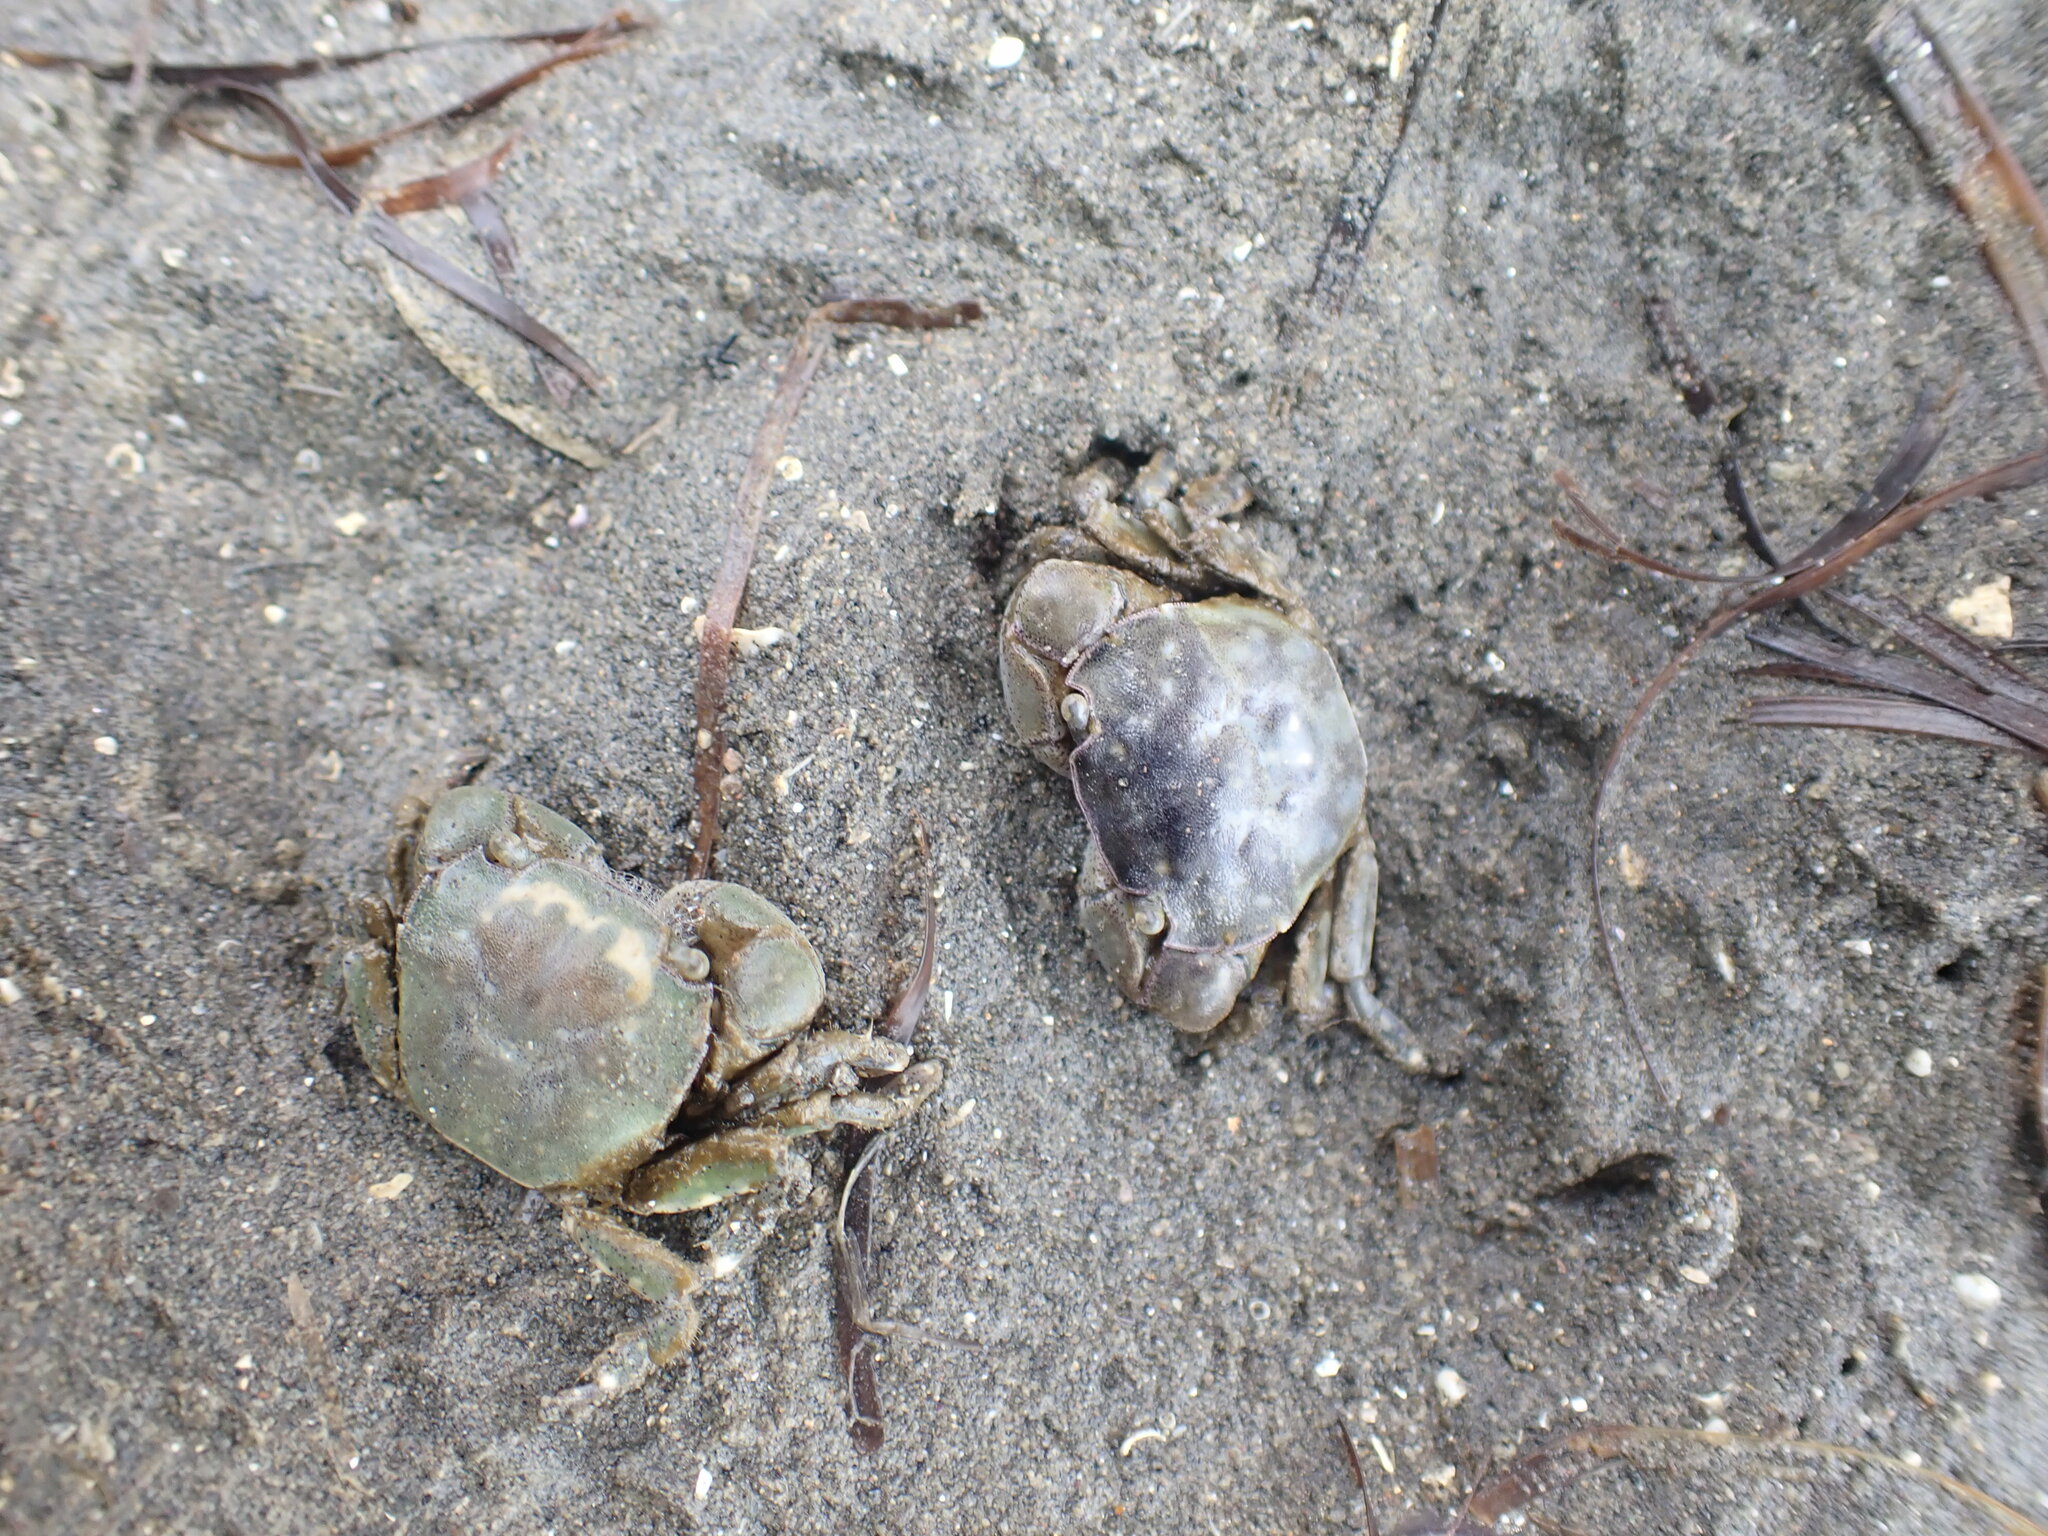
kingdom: Animalia
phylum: Arthropoda
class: Malacostraca
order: Decapoda
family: Varunidae
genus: Hemigrapsus
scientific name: Hemigrapsus crenulatus
